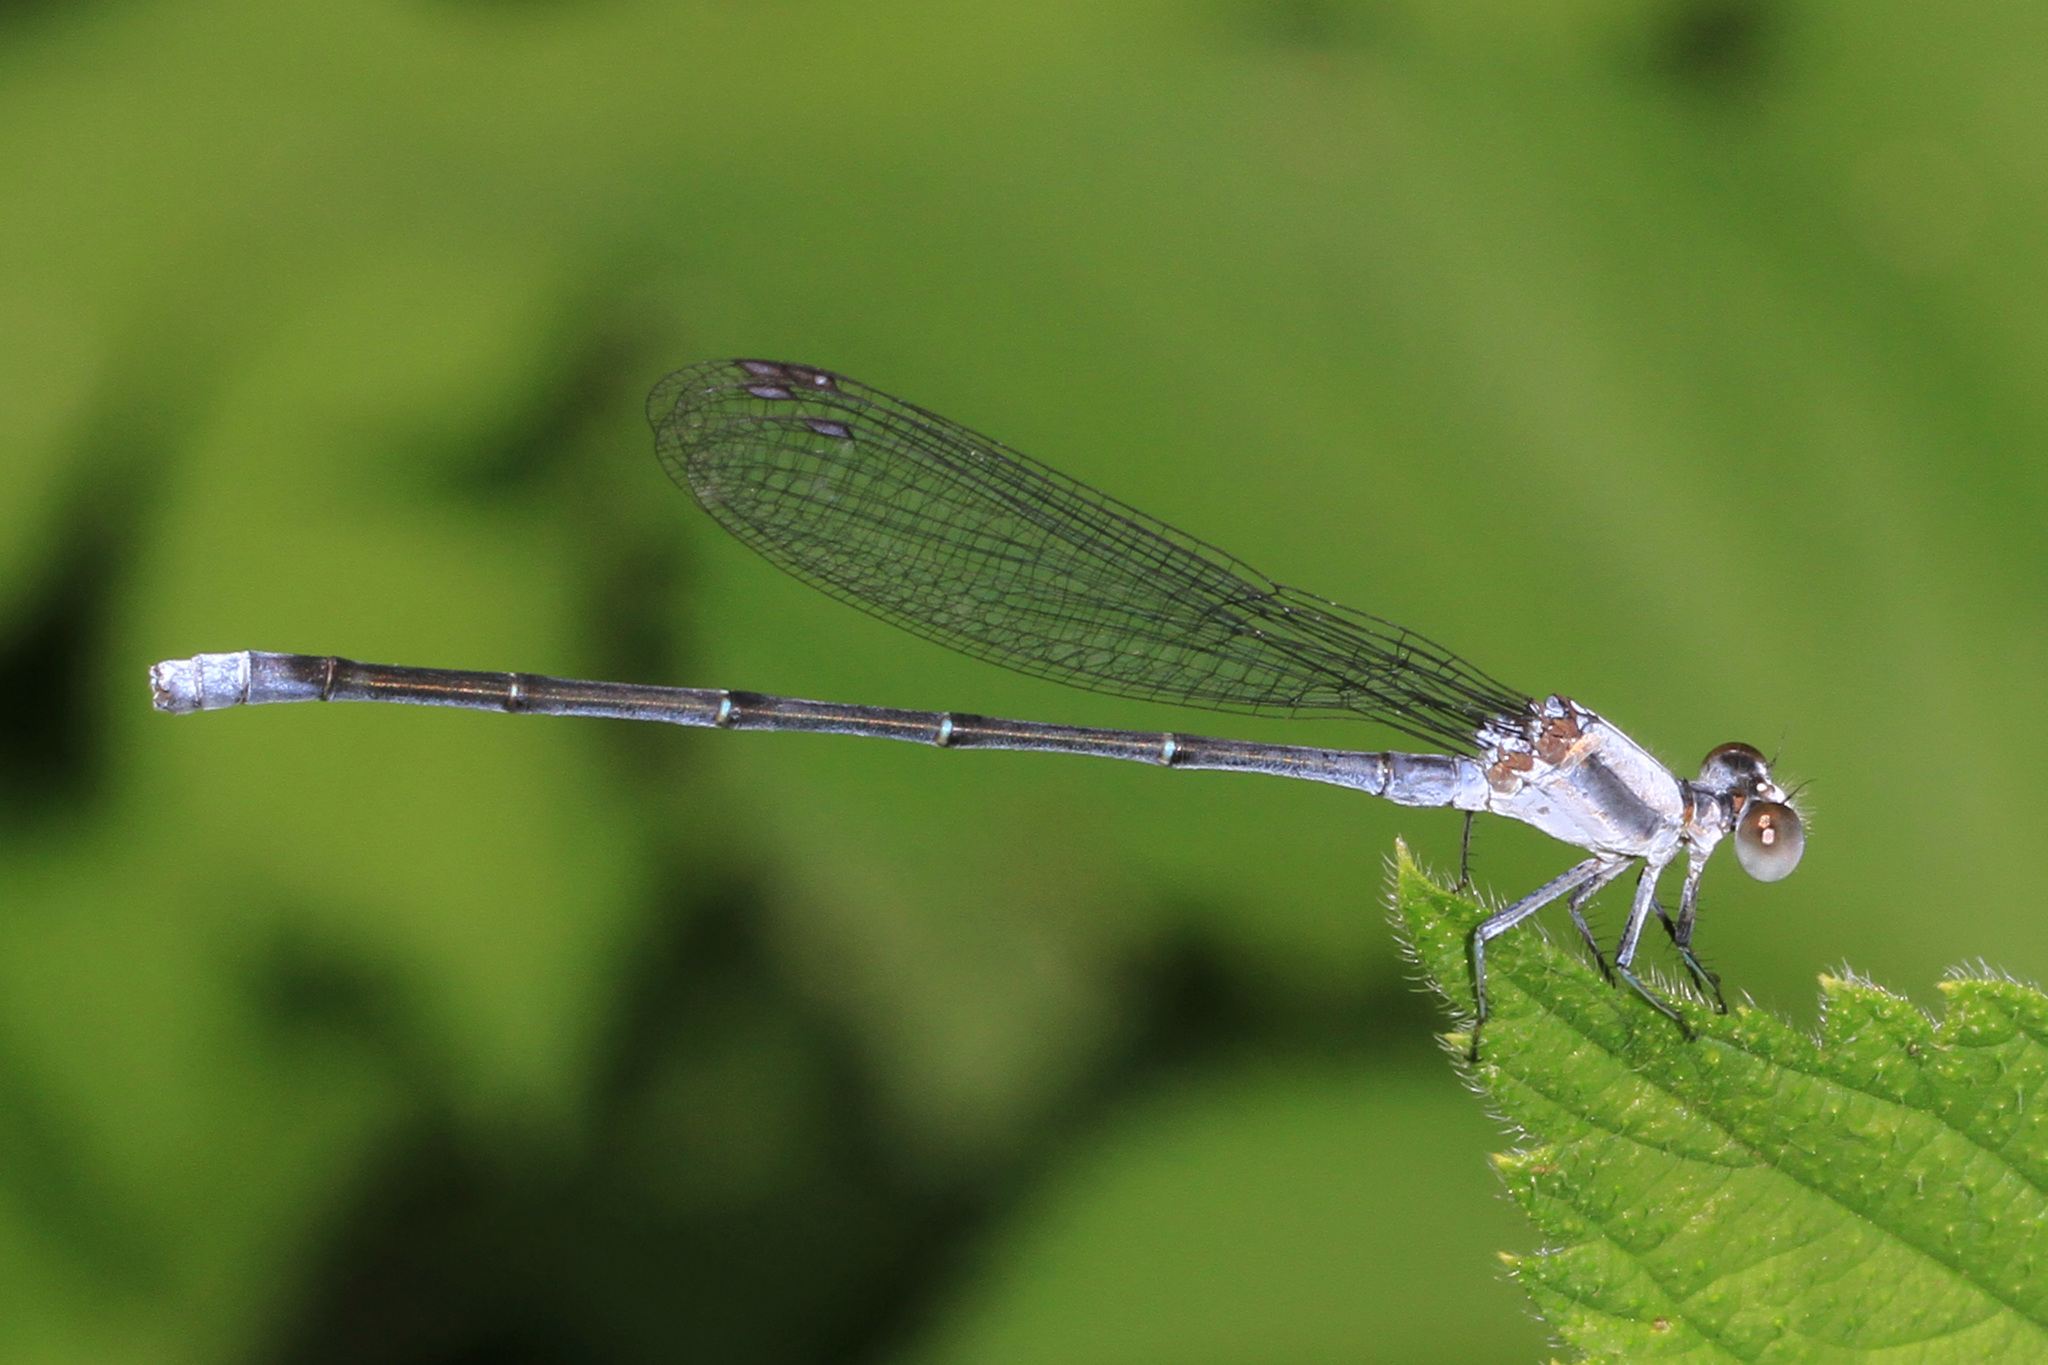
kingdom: Animalia
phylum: Arthropoda
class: Insecta
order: Odonata
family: Coenagrionidae
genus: Argia
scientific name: Argia moesta
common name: Powdered dancer
